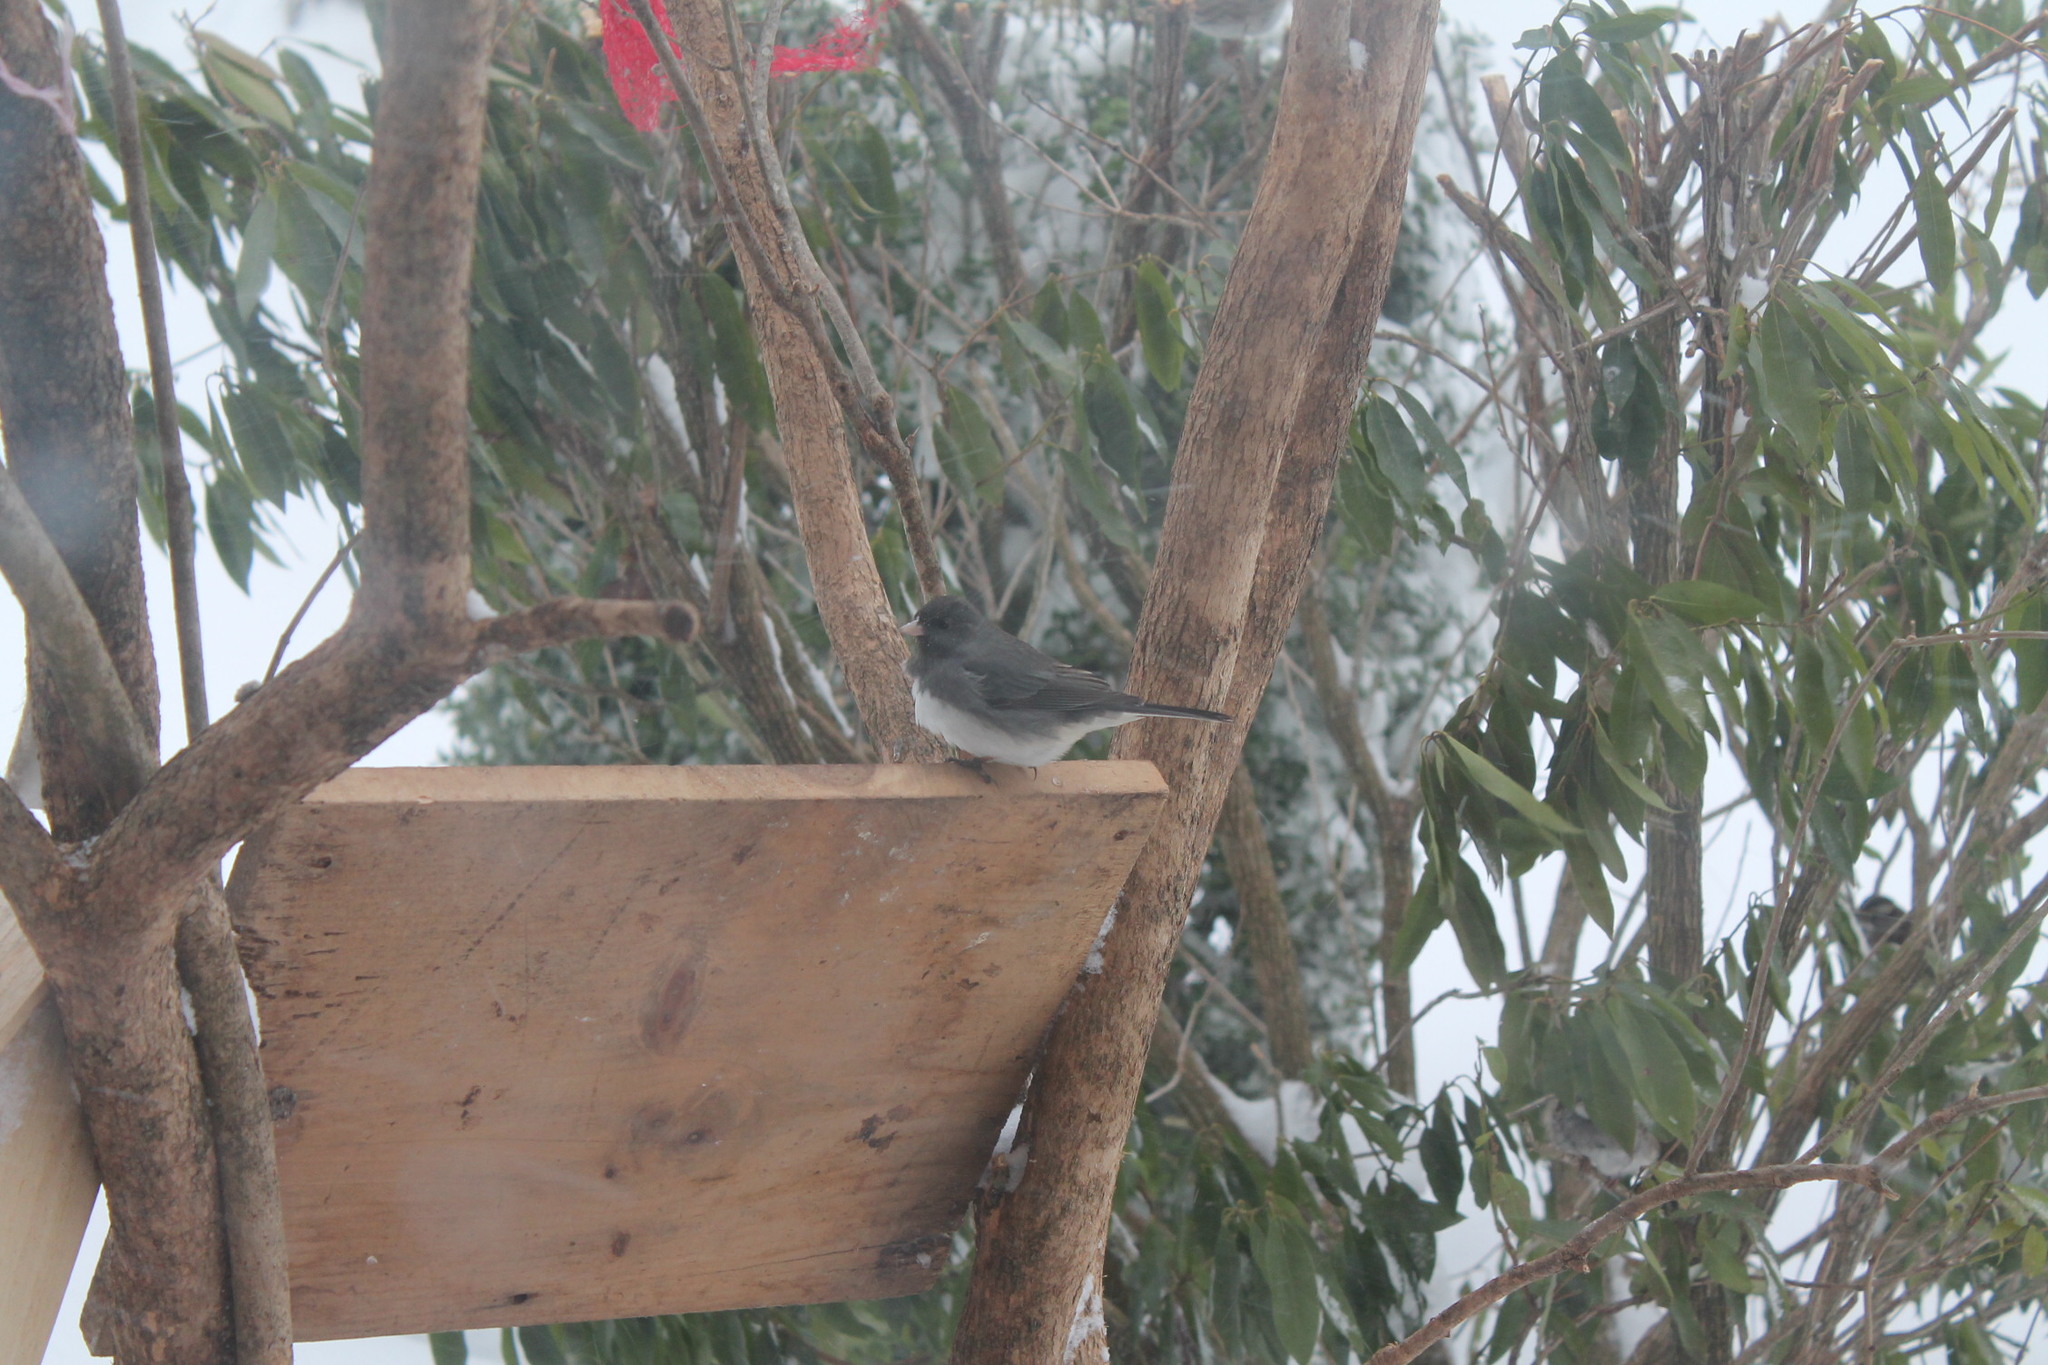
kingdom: Animalia
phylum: Chordata
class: Aves
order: Passeriformes
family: Passerellidae
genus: Junco
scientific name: Junco hyemalis
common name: Dark-eyed junco
